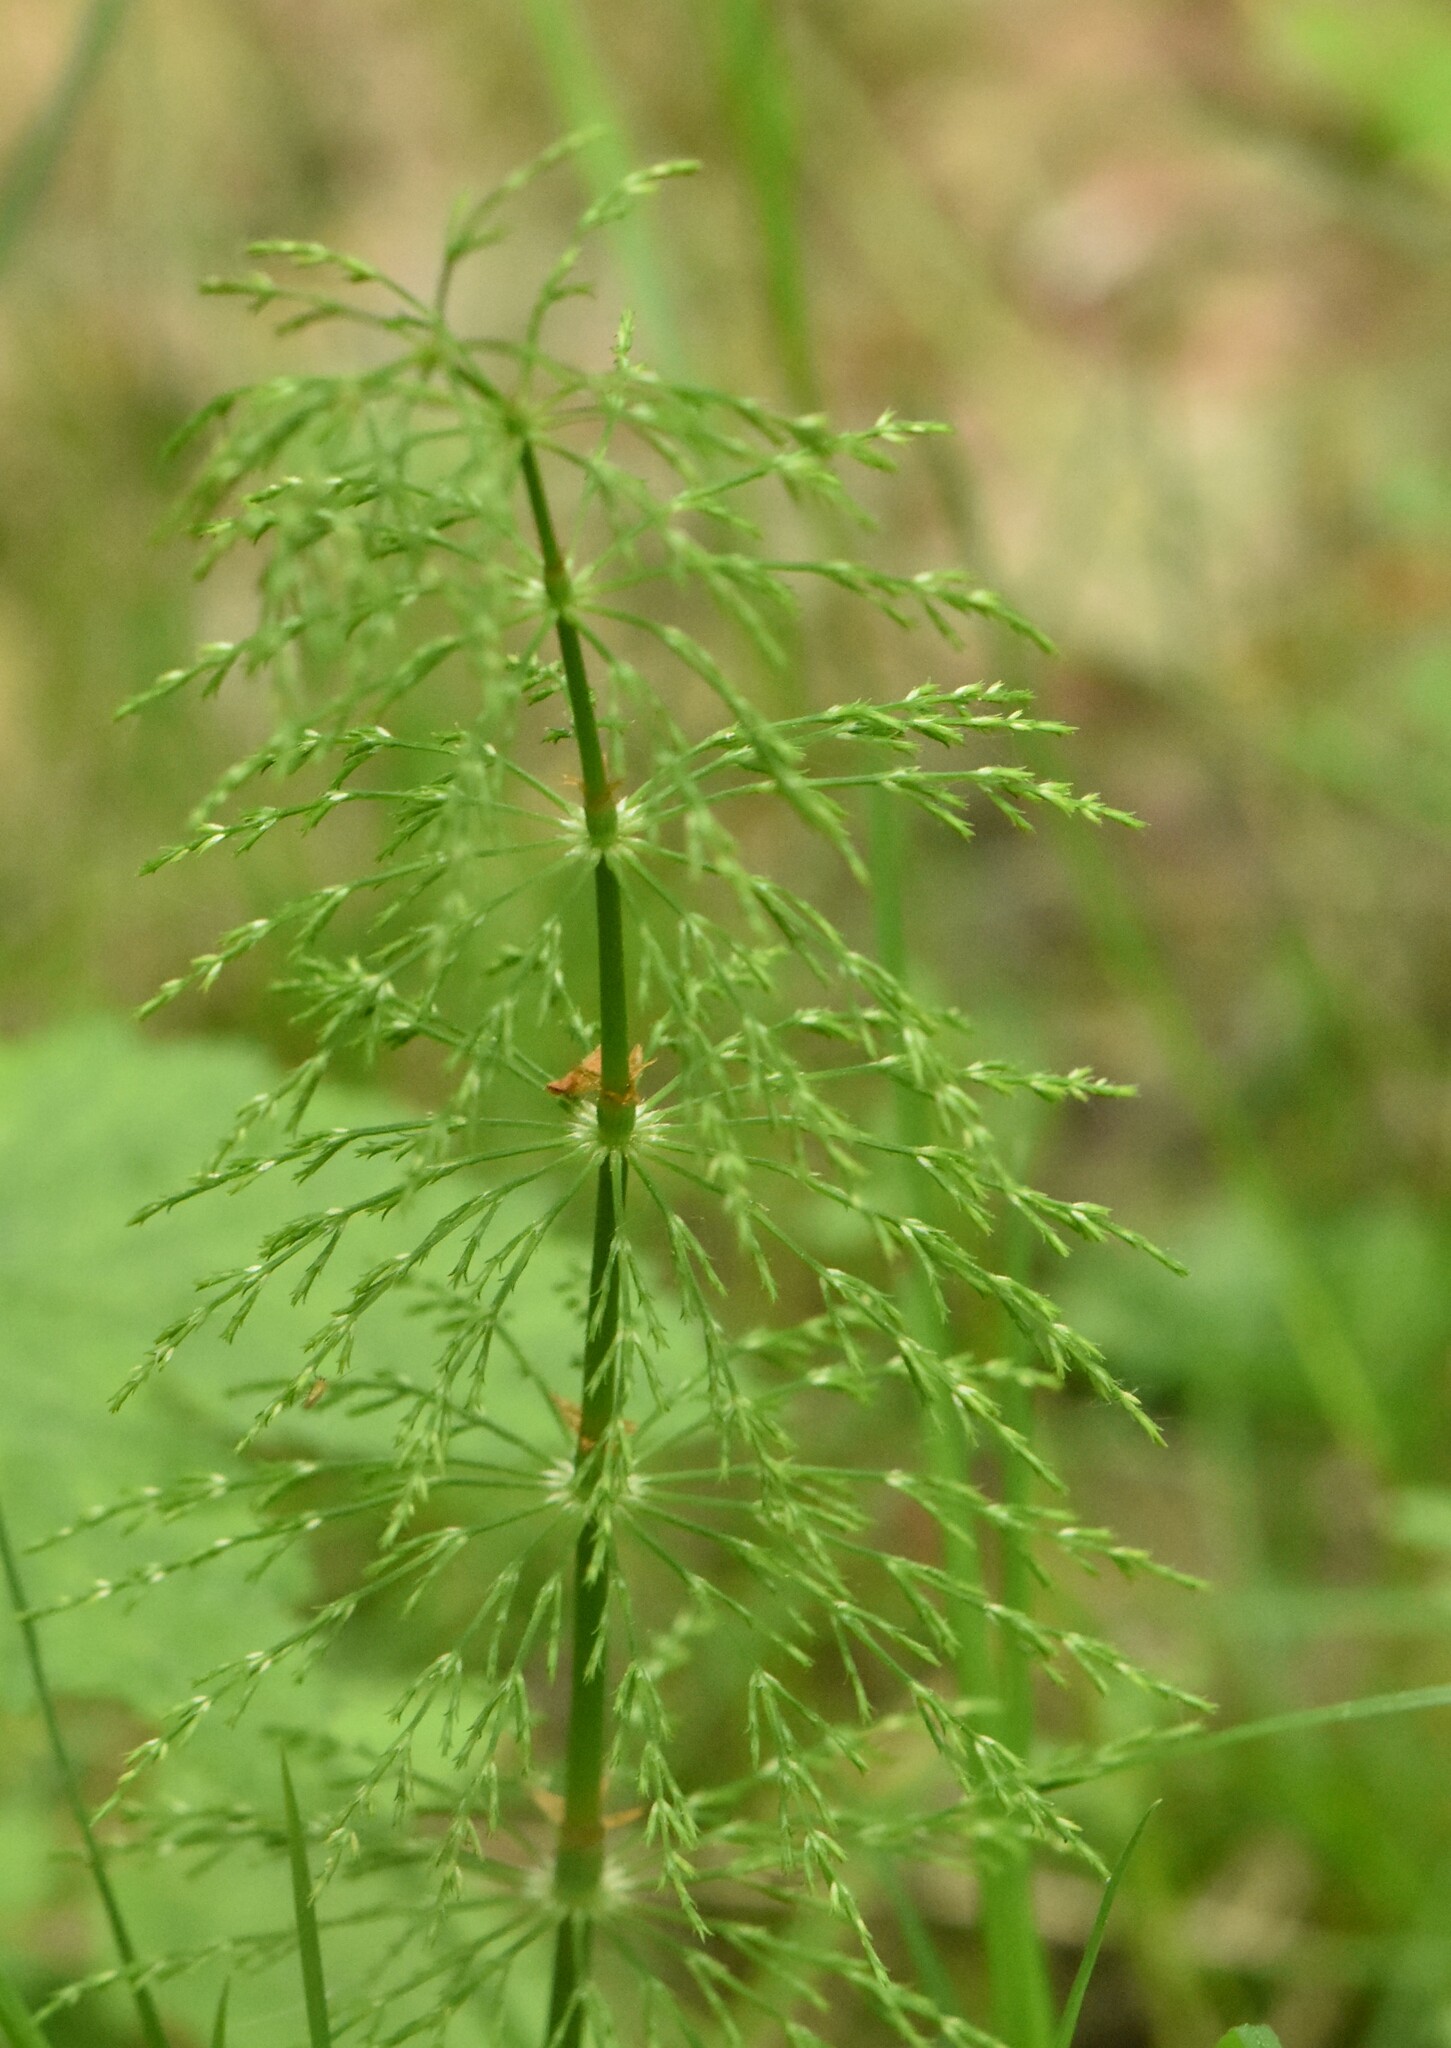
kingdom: Plantae
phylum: Tracheophyta
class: Polypodiopsida
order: Equisetales
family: Equisetaceae
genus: Equisetum
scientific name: Equisetum sylvaticum
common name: Wood horsetail
